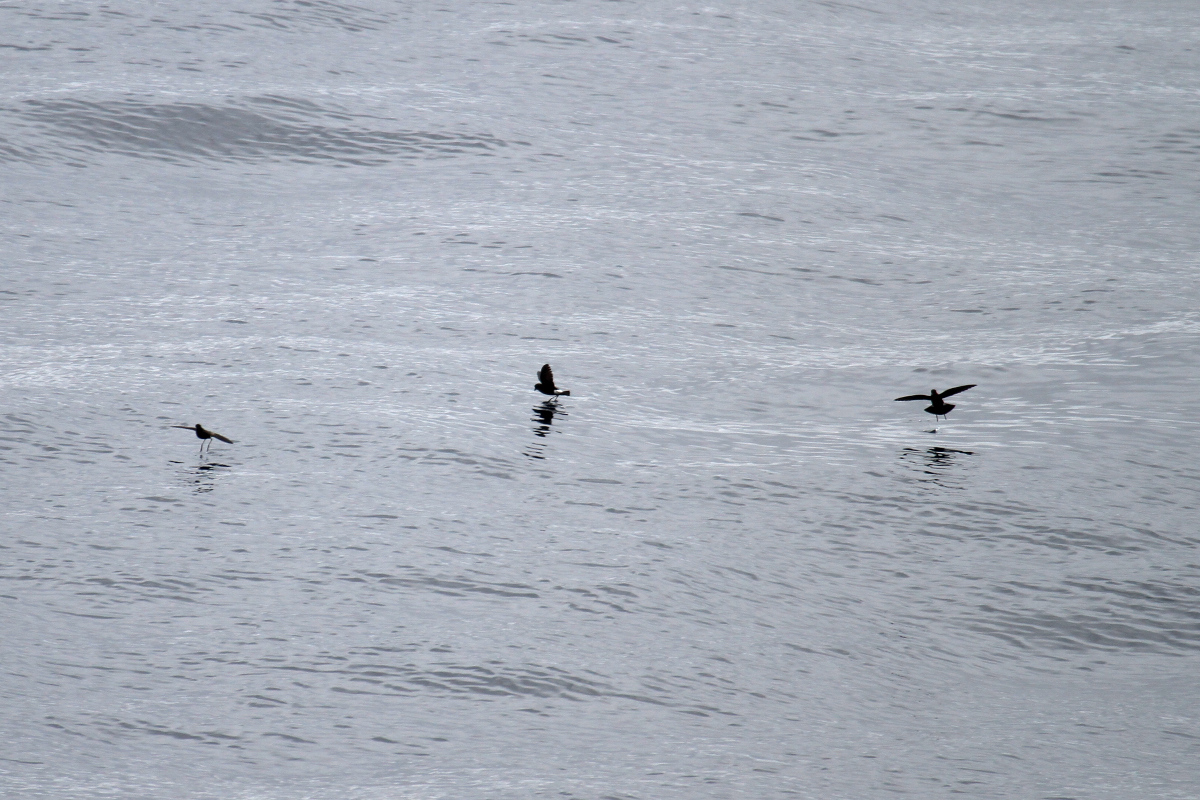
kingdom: Animalia
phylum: Chordata
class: Aves
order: Procellariiformes
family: Hydrobatidae
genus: Oceanites
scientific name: Oceanites oceanicus
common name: Wilson's storm petrel
